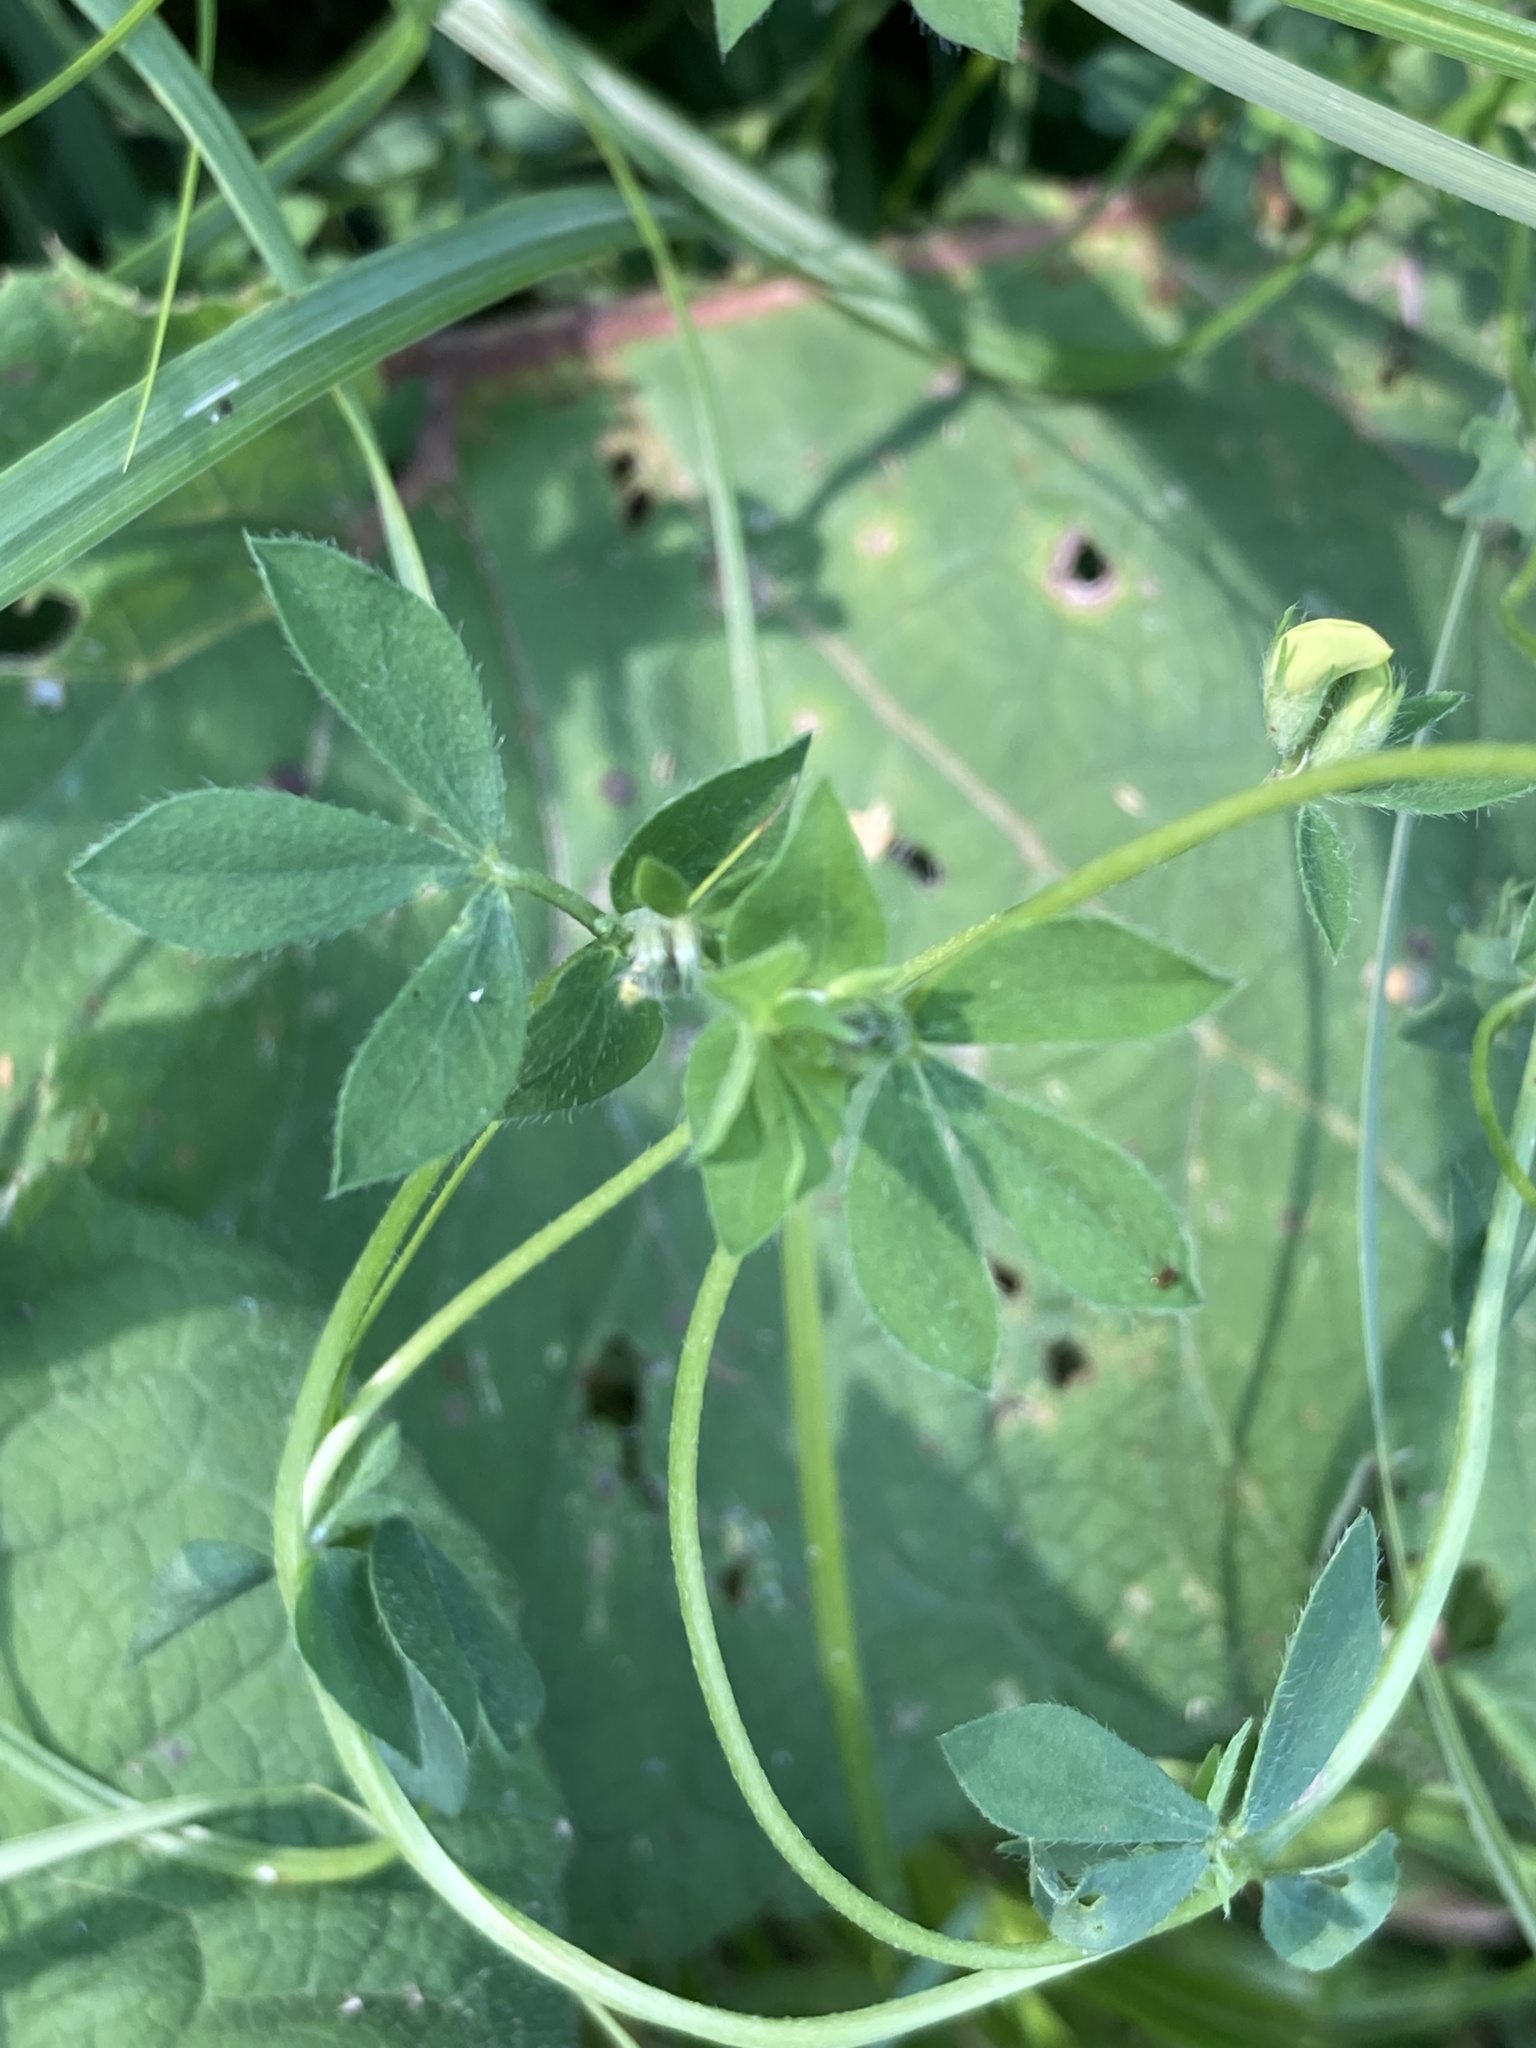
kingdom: Plantae
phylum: Tracheophyta
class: Magnoliopsida
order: Fabales
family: Fabaceae
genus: Lotus
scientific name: Lotus corniculatus
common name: Common bird's-foot-trefoil
